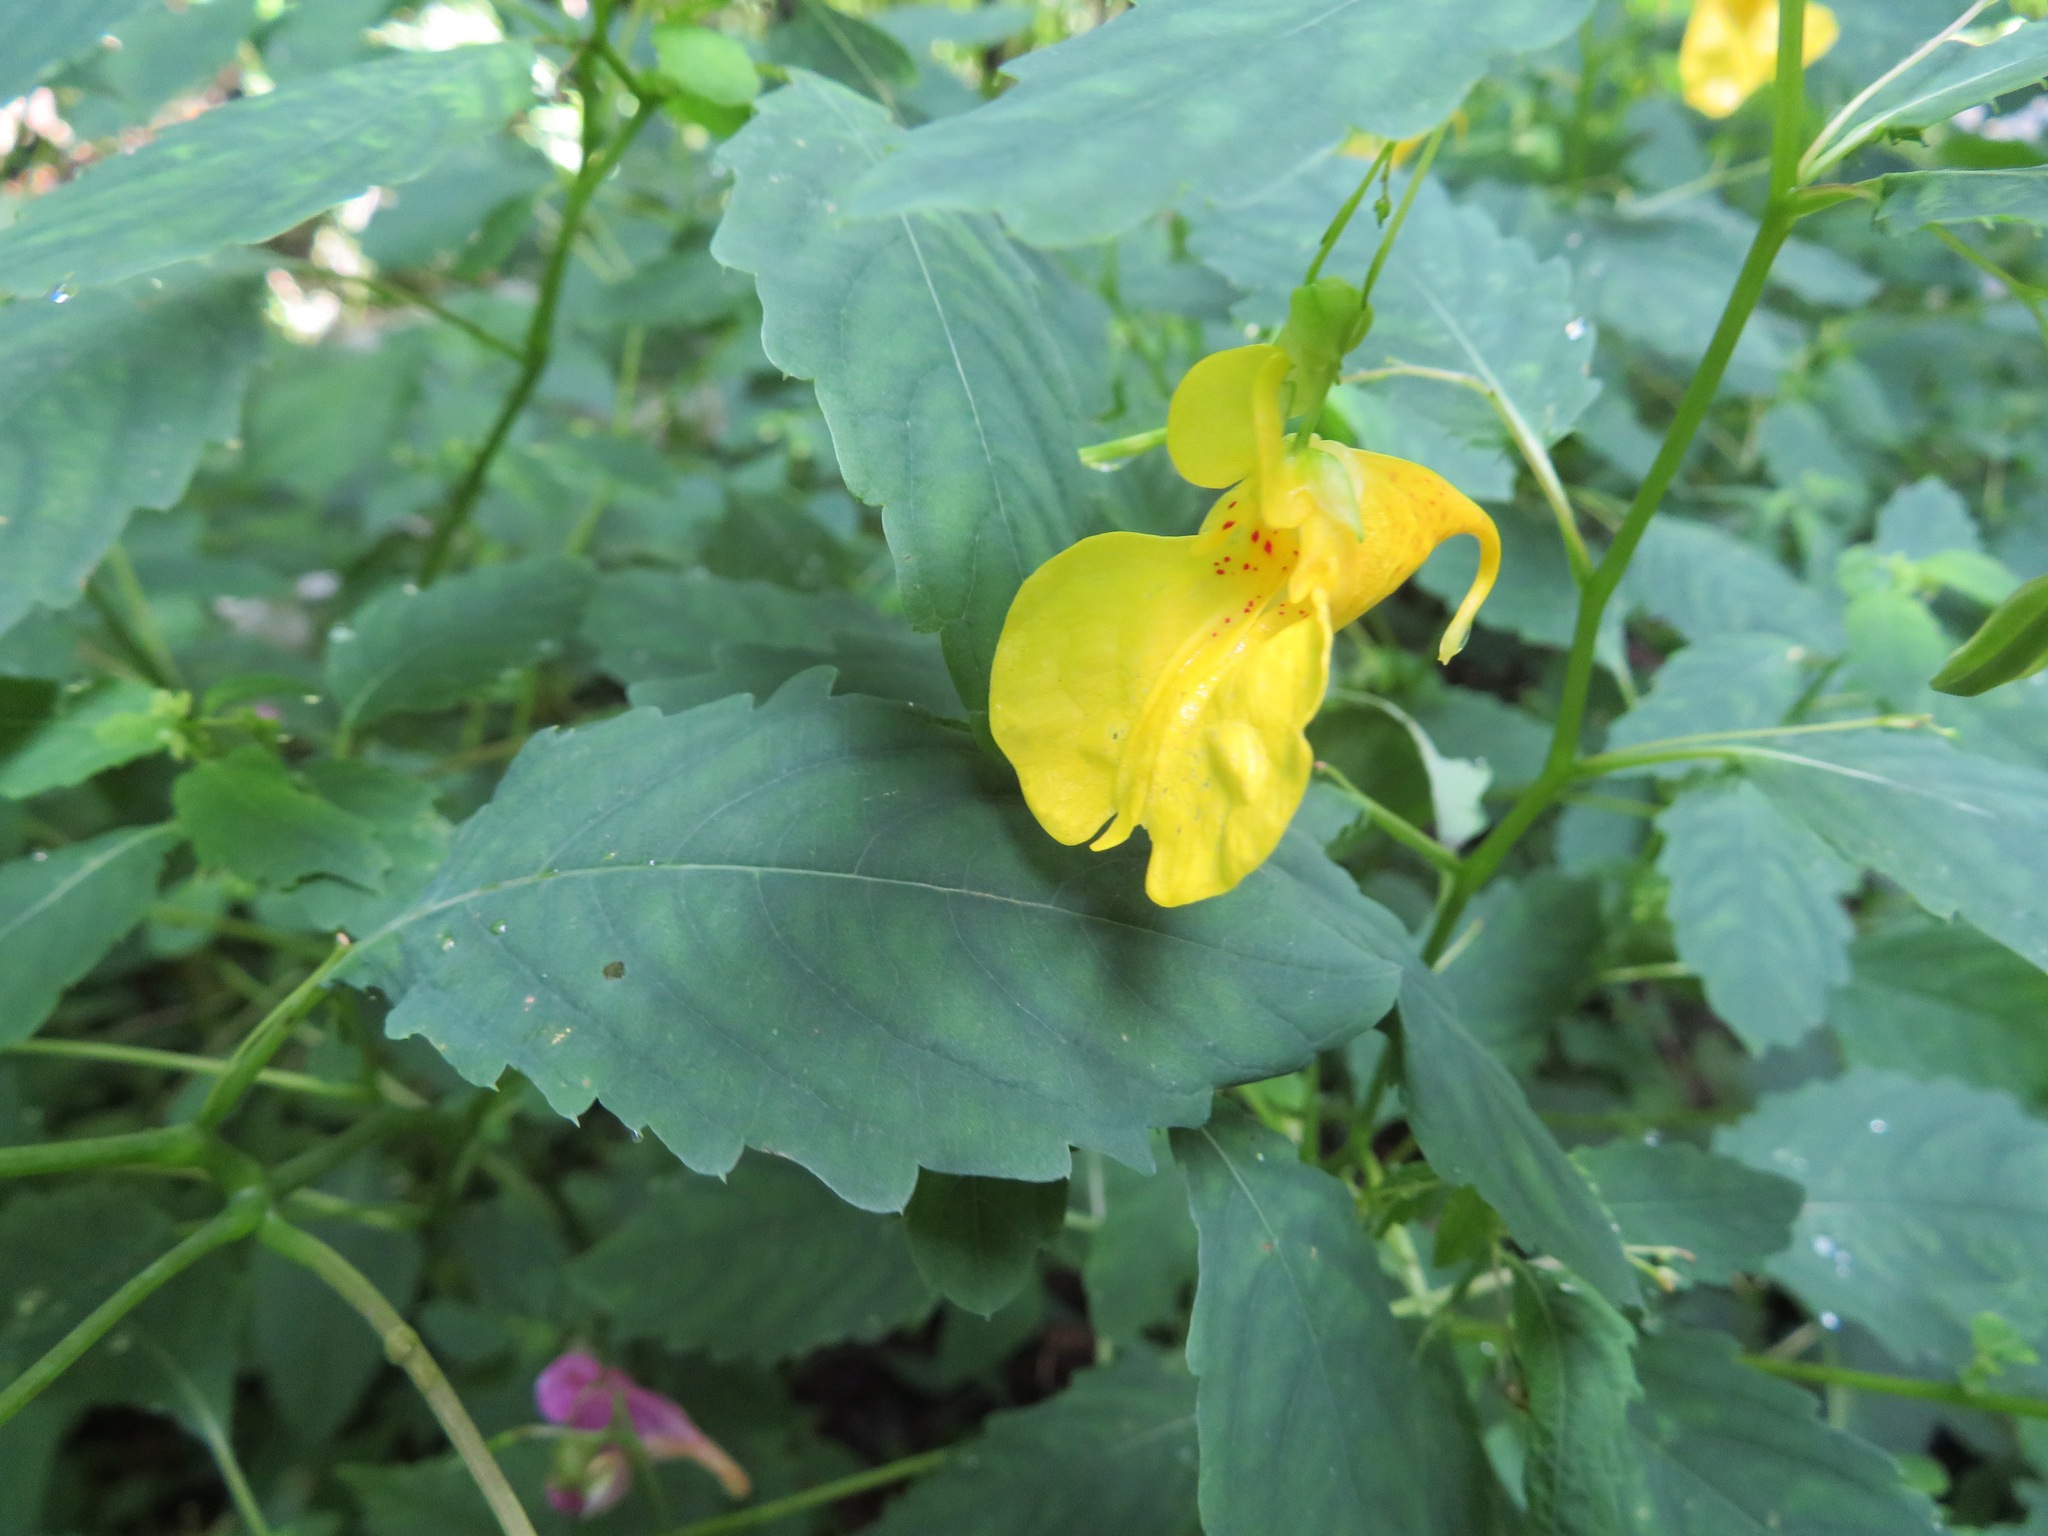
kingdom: Plantae
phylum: Tracheophyta
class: Magnoliopsida
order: Ericales
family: Balsaminaceae
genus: Impatiens
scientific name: Impatiens noli-tangere
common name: Touch-me-not balsam
